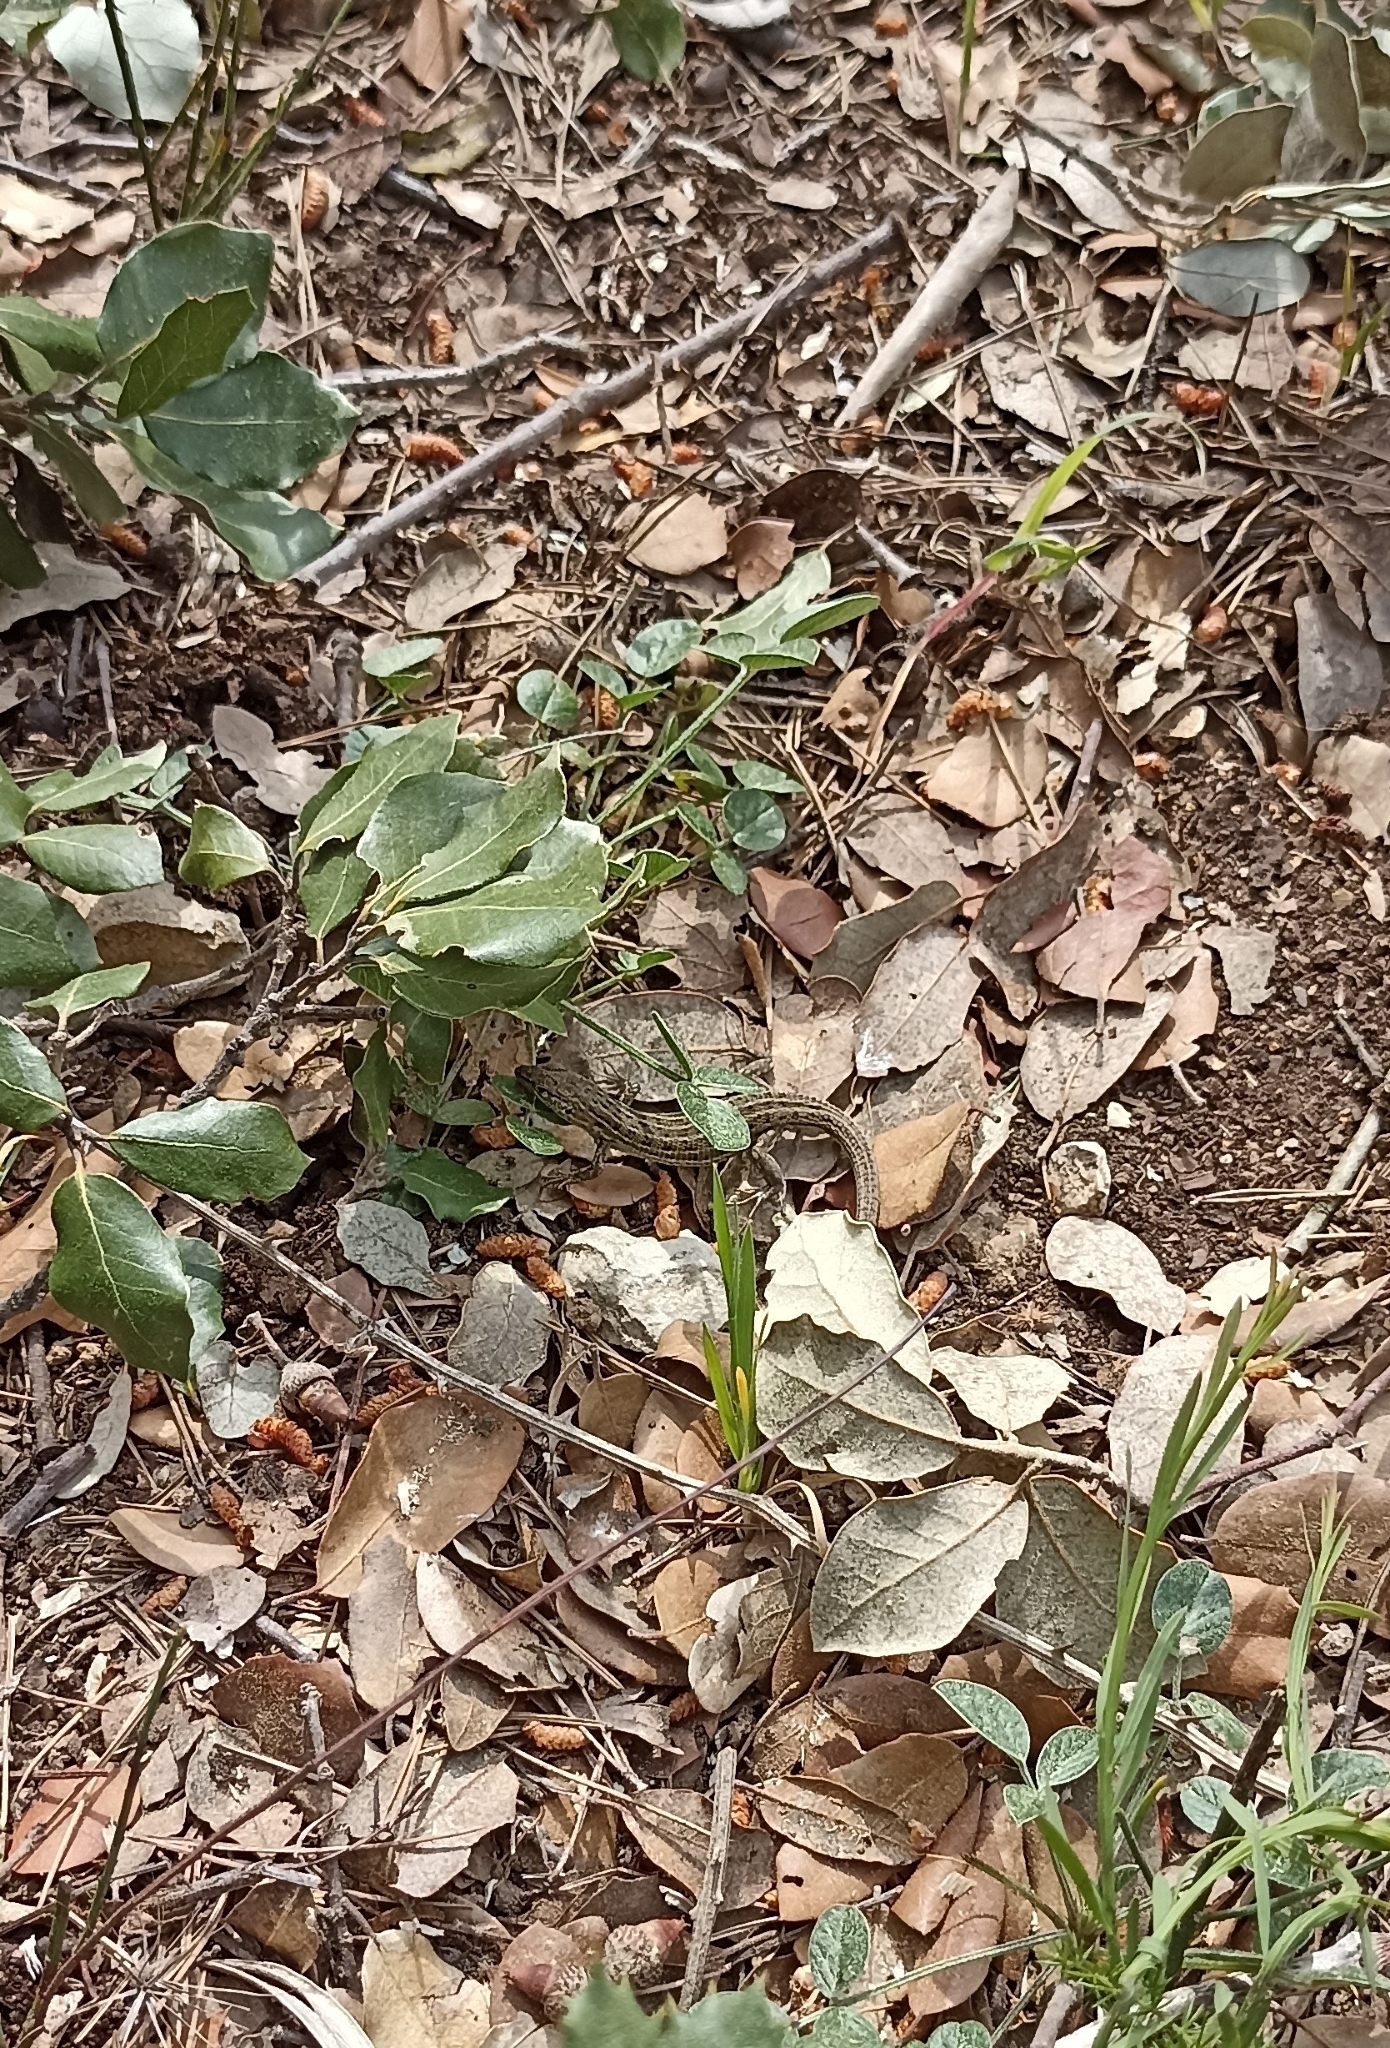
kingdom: Animalia
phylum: Chordata
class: Squamata
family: Lacertidae
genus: Psammodromus
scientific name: Psammodromus edwarsianus
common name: East iberian psammodromus
